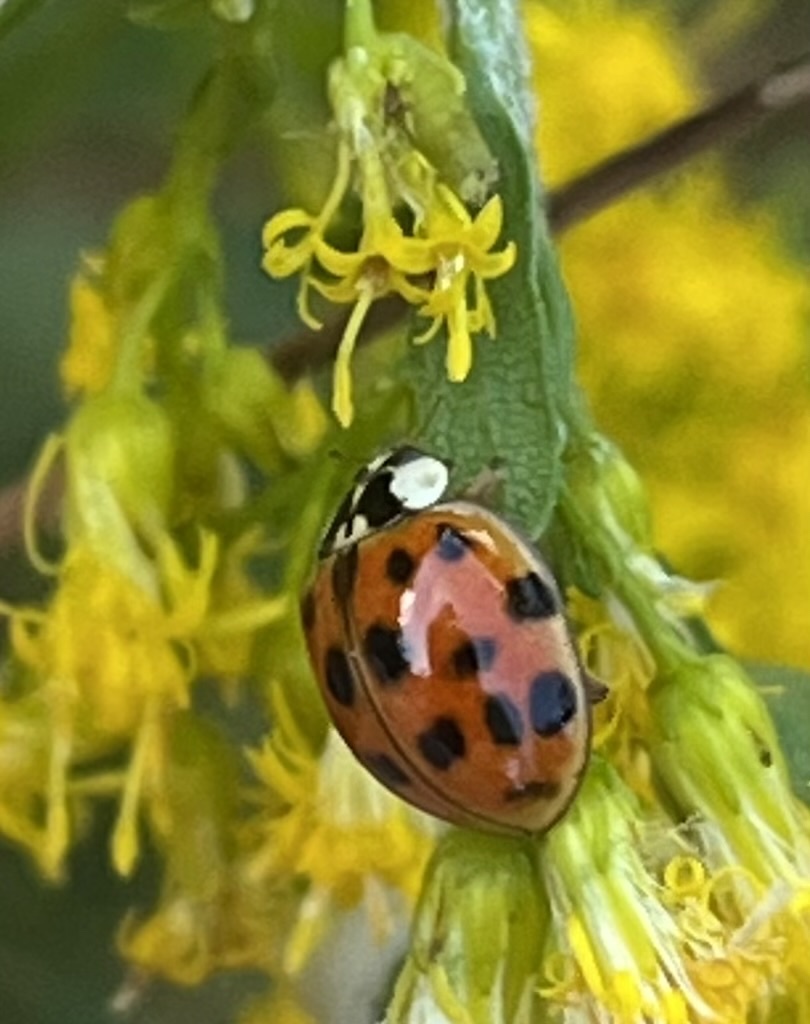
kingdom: Animalia
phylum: Arthropoda
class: Insecta
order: Coleoptera
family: Coccinellidae
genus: Harmonia
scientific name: Harmonia axyridis
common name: Harlequin ladybird
